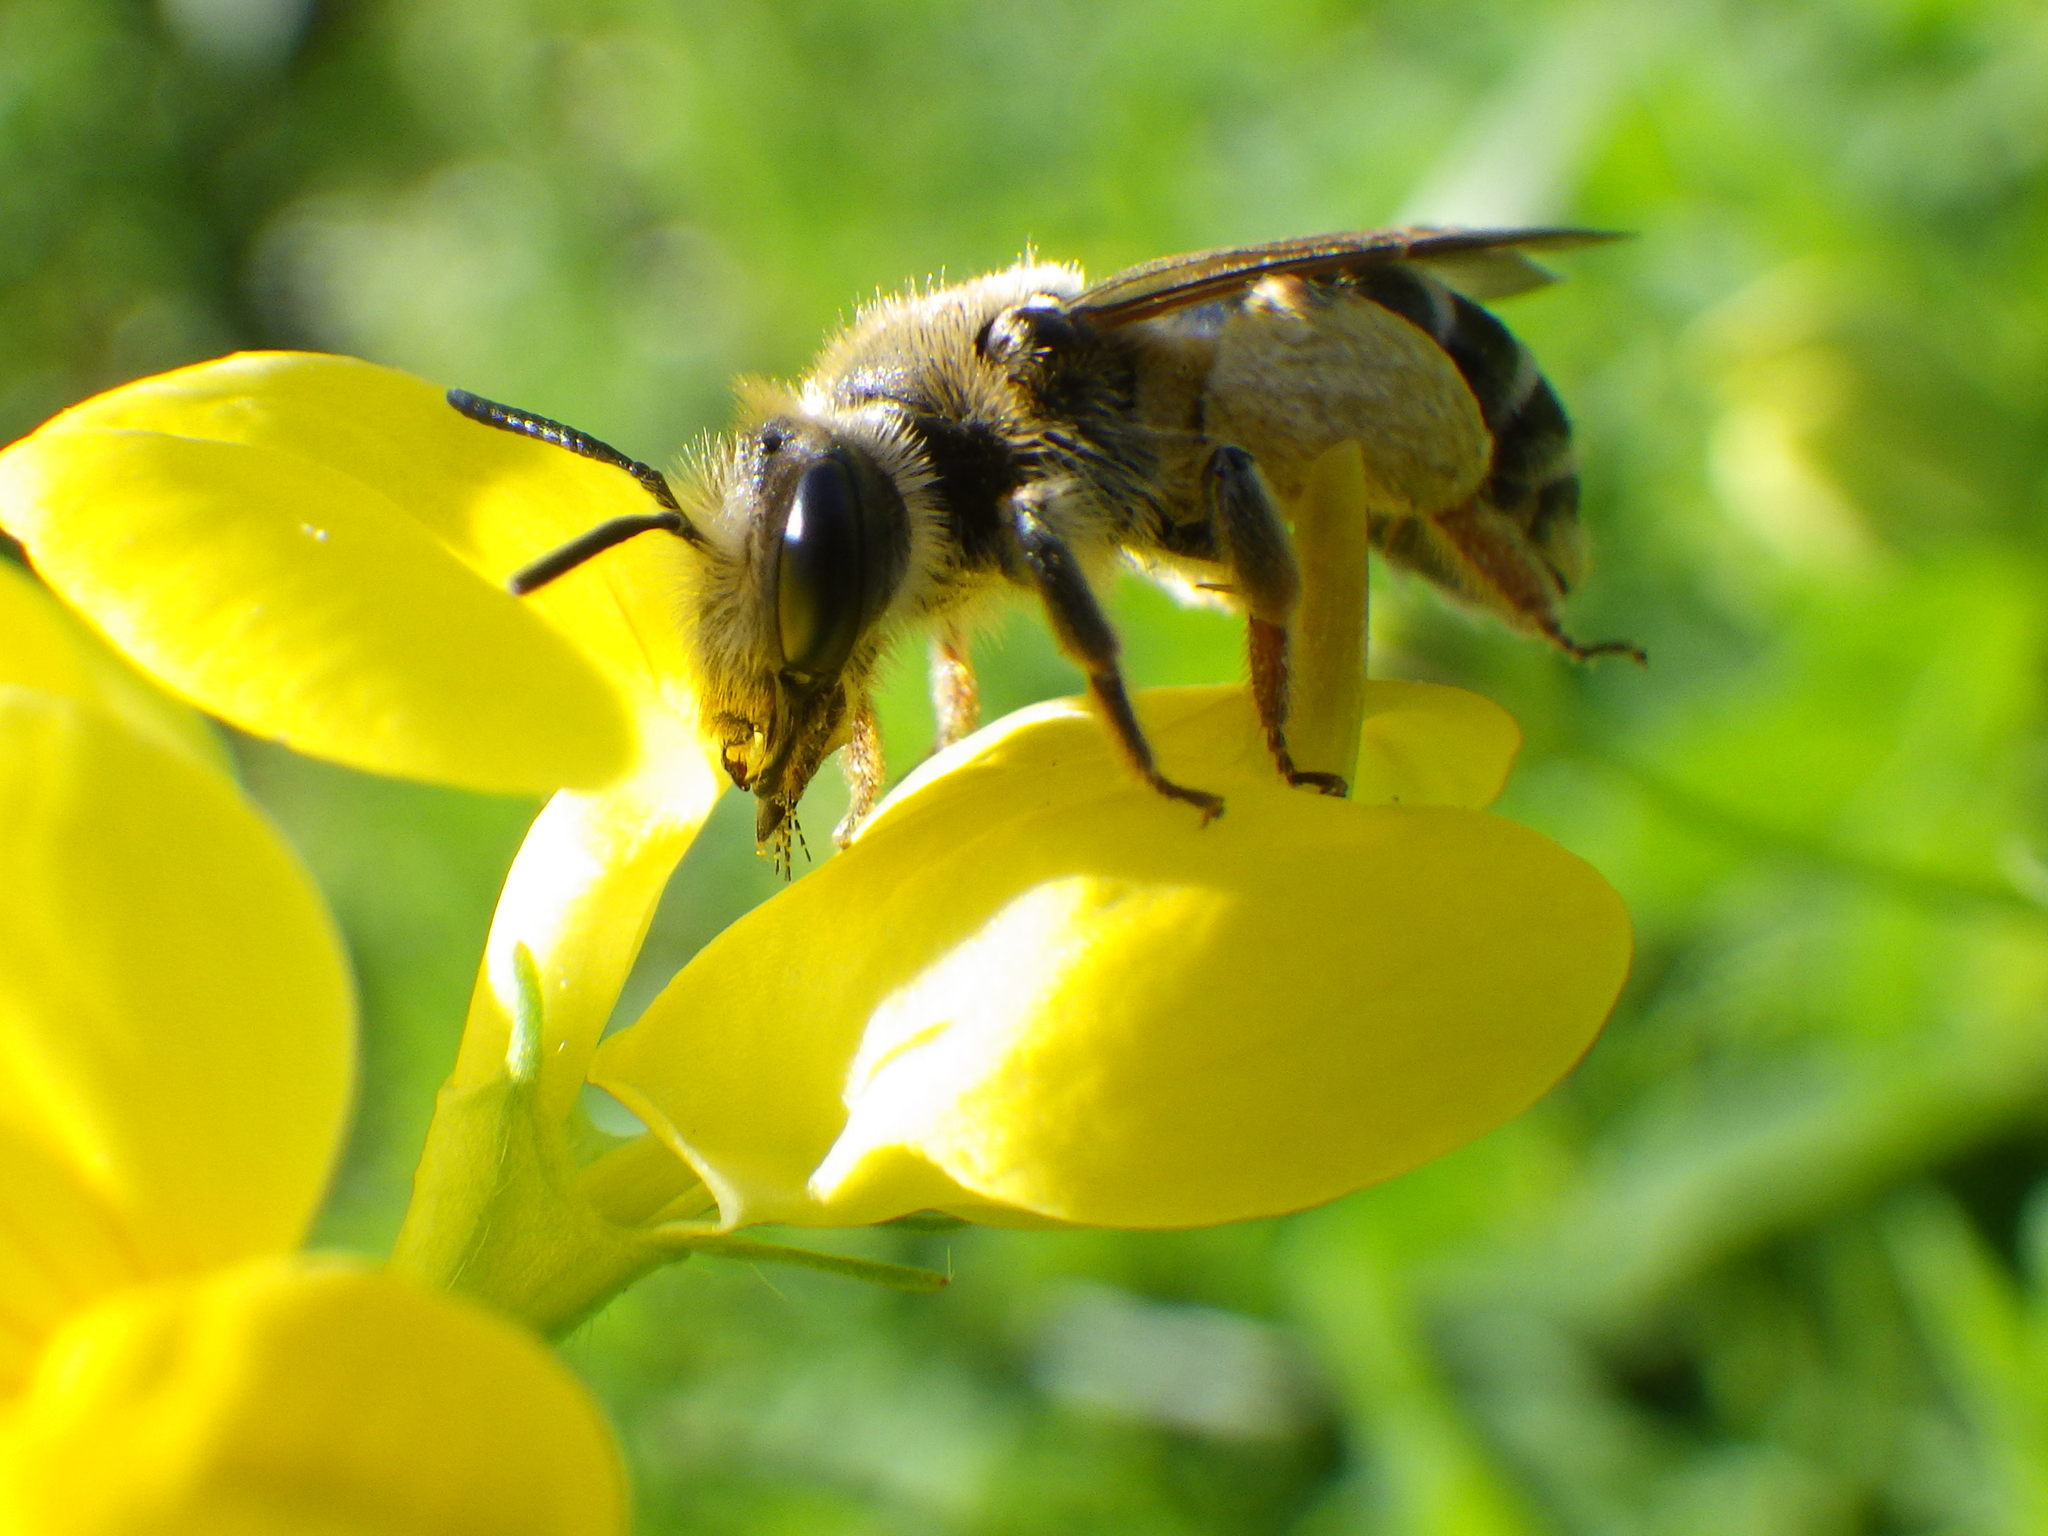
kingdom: Animalia
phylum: Arthropoda
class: Insecta
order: Hymenoptera
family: Andrenidae
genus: Andrena
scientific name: Andrena wilkella
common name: Wilke's mining bee
